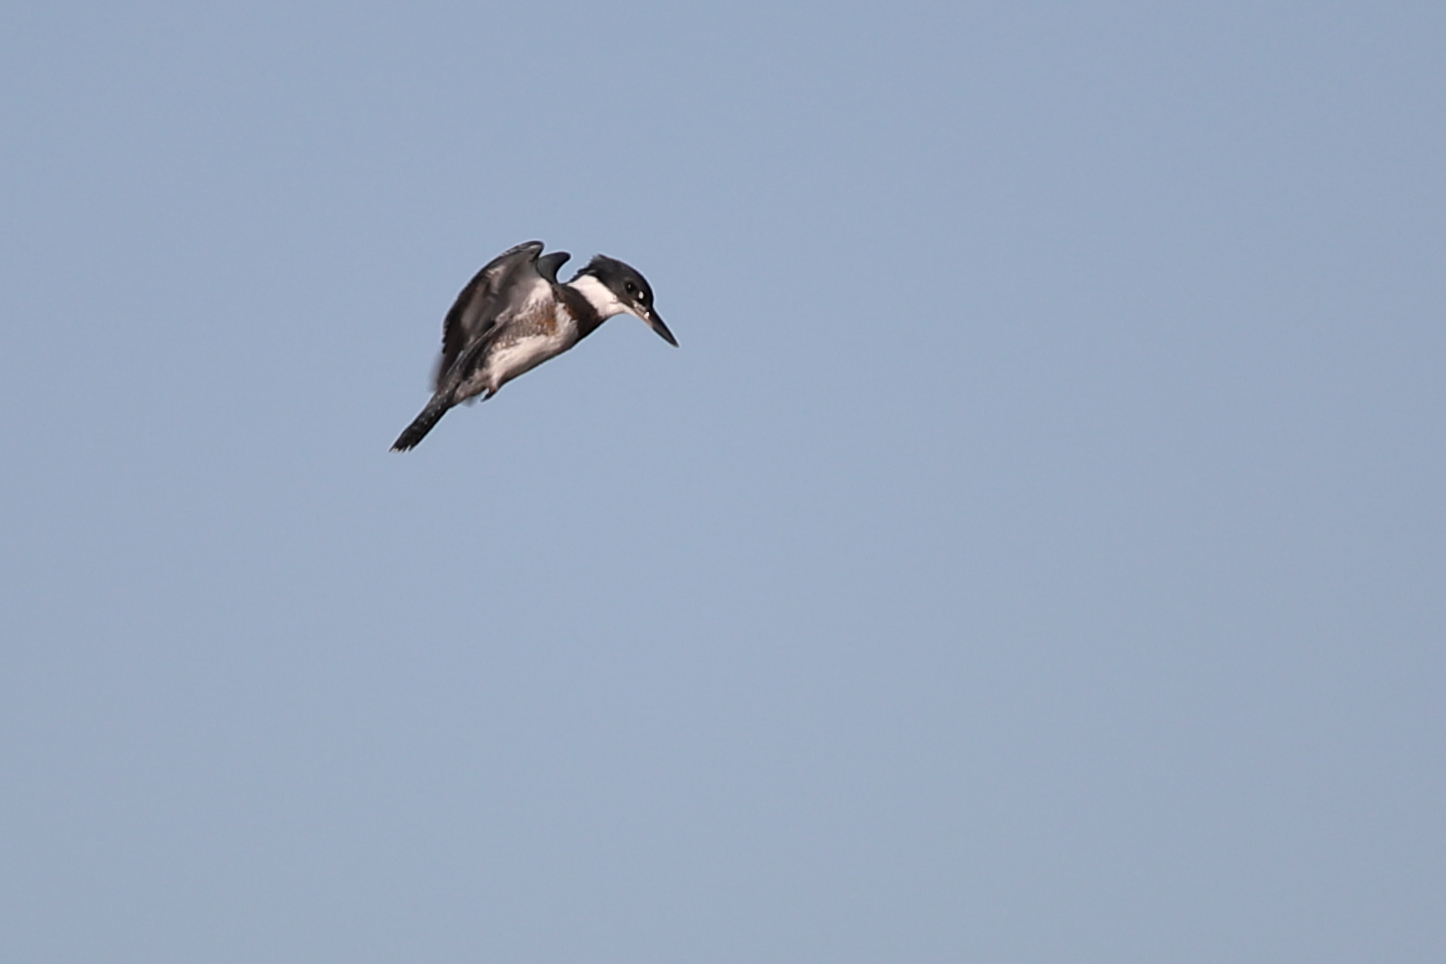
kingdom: Animalia
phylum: Chordata
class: Aves
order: Coraciiformes
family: Alcedinidae
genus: Megaceryle
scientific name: Megaceryle alcyon
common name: Belted kingfisher
